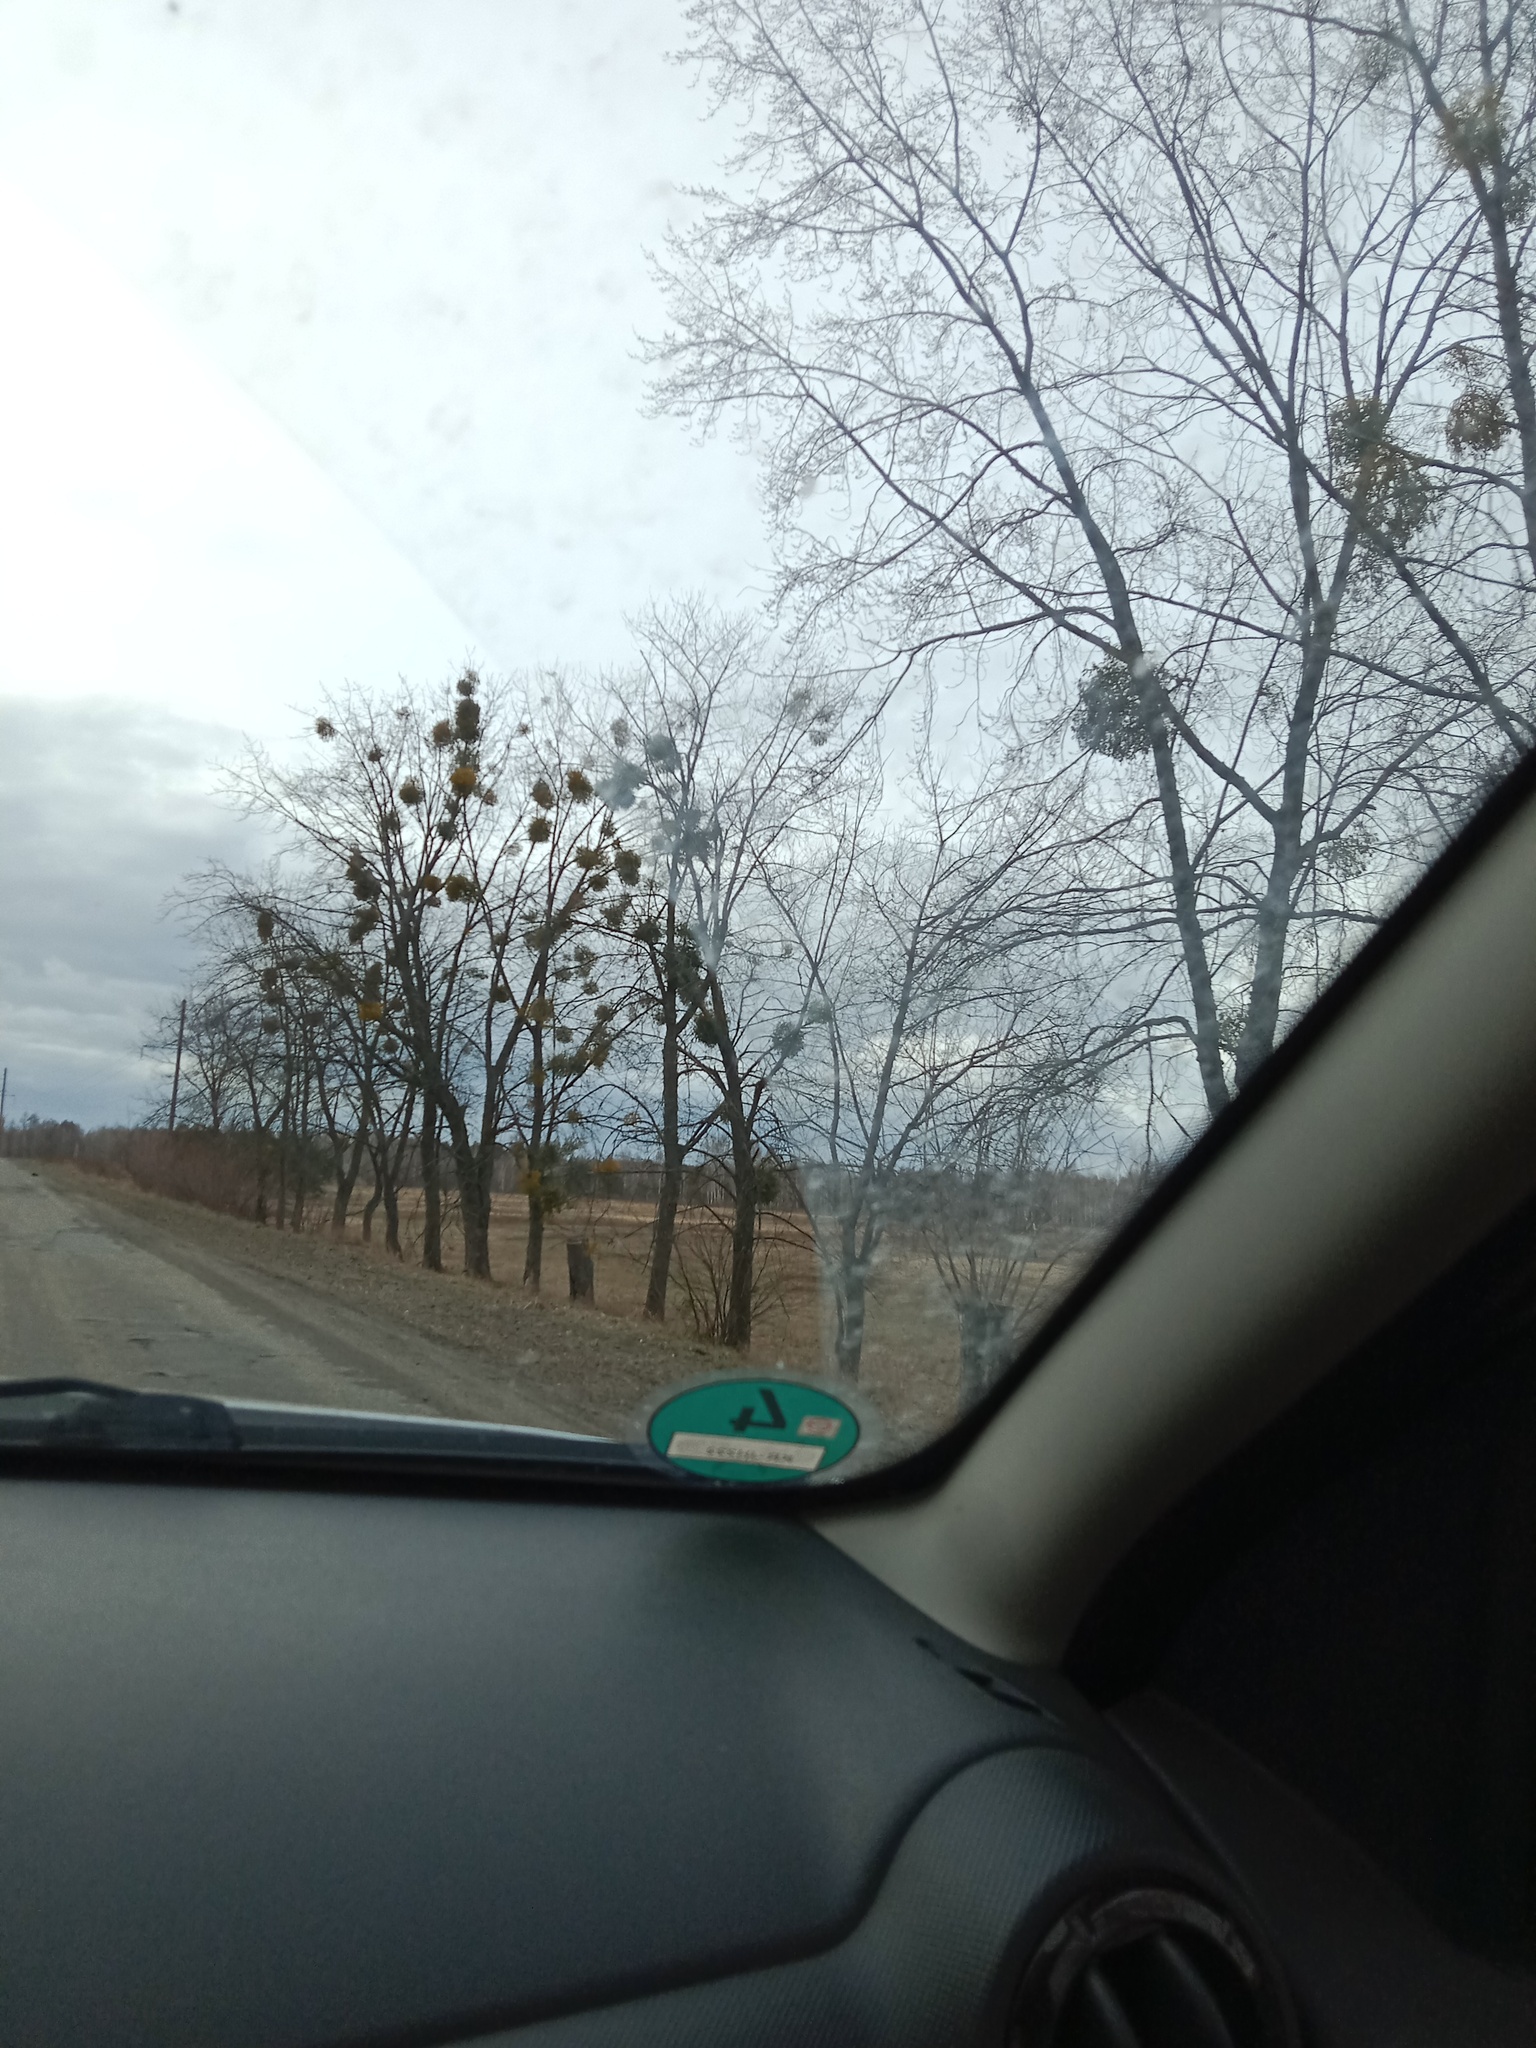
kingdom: Plantae
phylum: Tracheophyta
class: Magnoliopsida
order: Santalales
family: Viscaceae
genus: Viscum
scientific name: Viscum album
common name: Mistletoe
